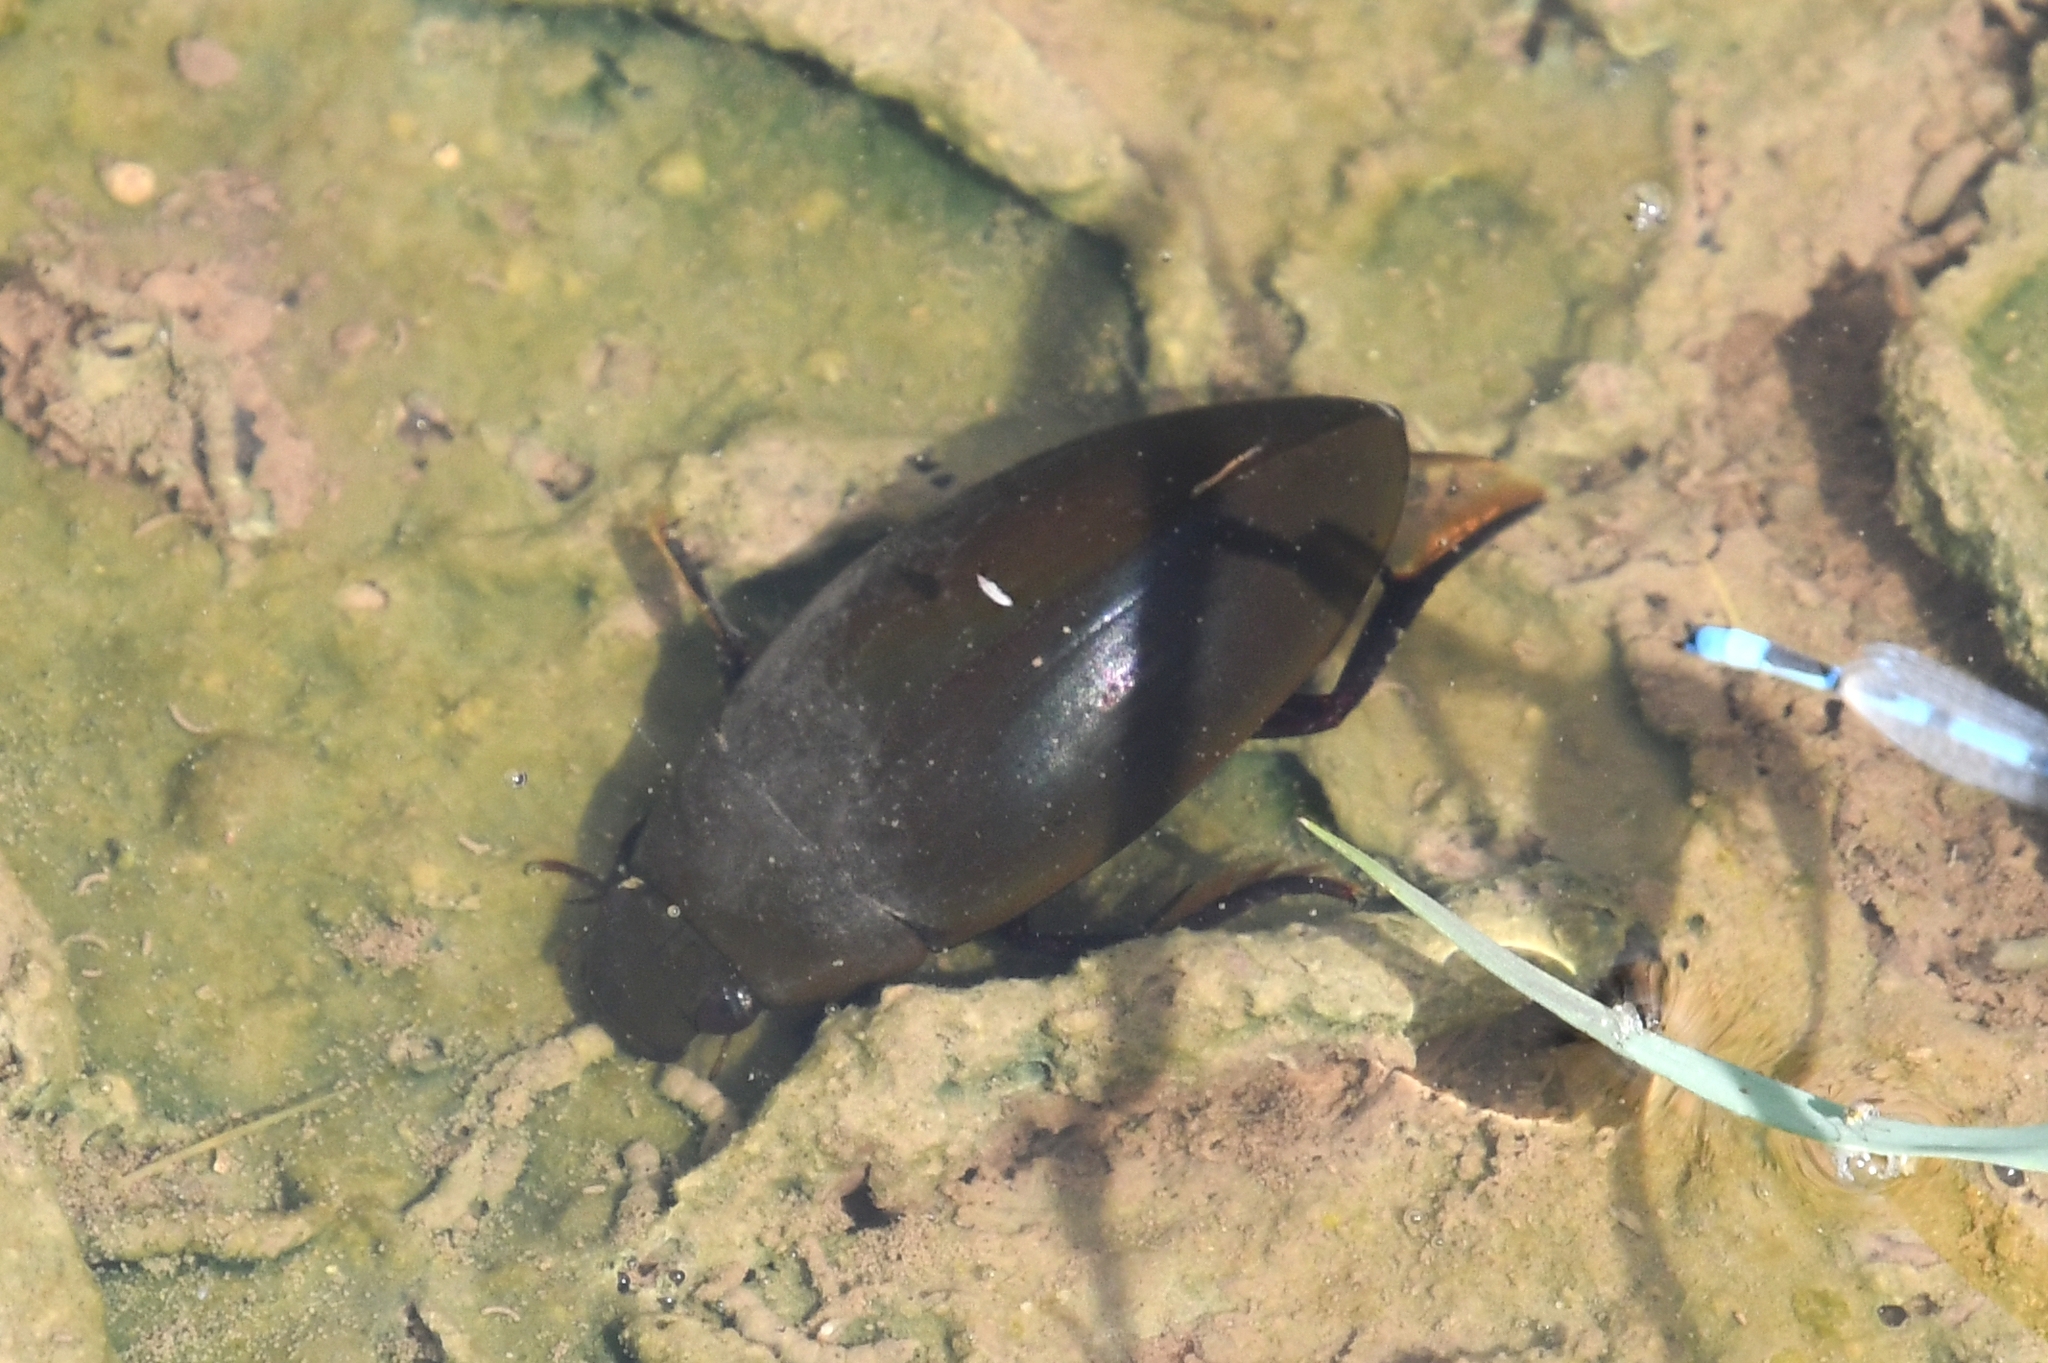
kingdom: Animalia
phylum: Arthropoda
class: Insecta
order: Coleoptera
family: Hydrophilidae
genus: Hydrophilus
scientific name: Hydrophilus
